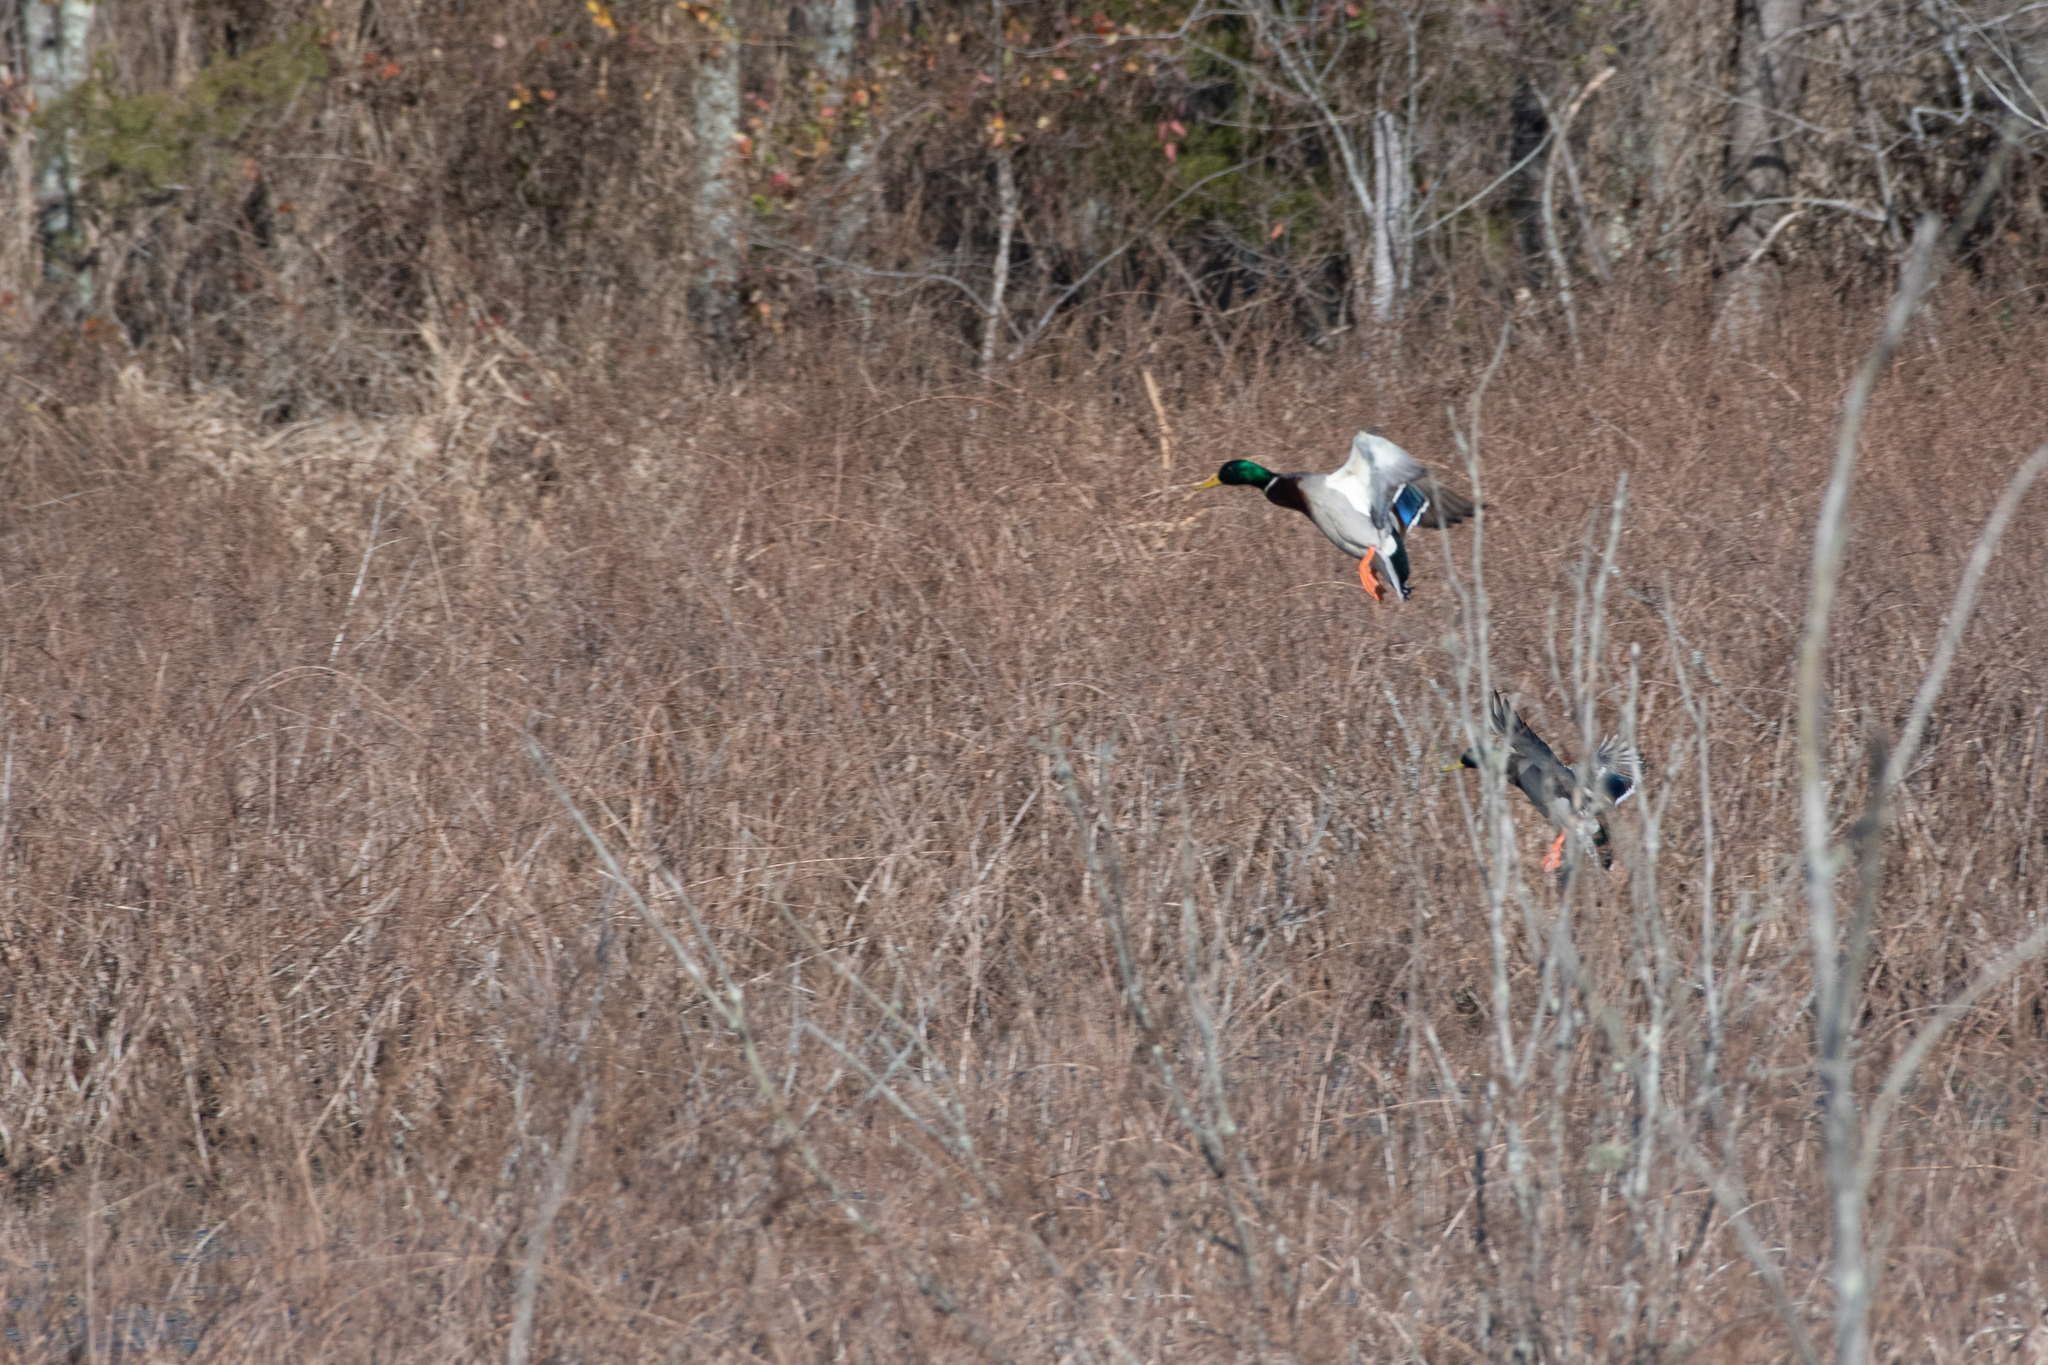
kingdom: Animalia
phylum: Chordata
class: Aves
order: Anseriformes
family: Anatidae
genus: Anas
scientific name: Anas platyrhynchos
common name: Mallard
